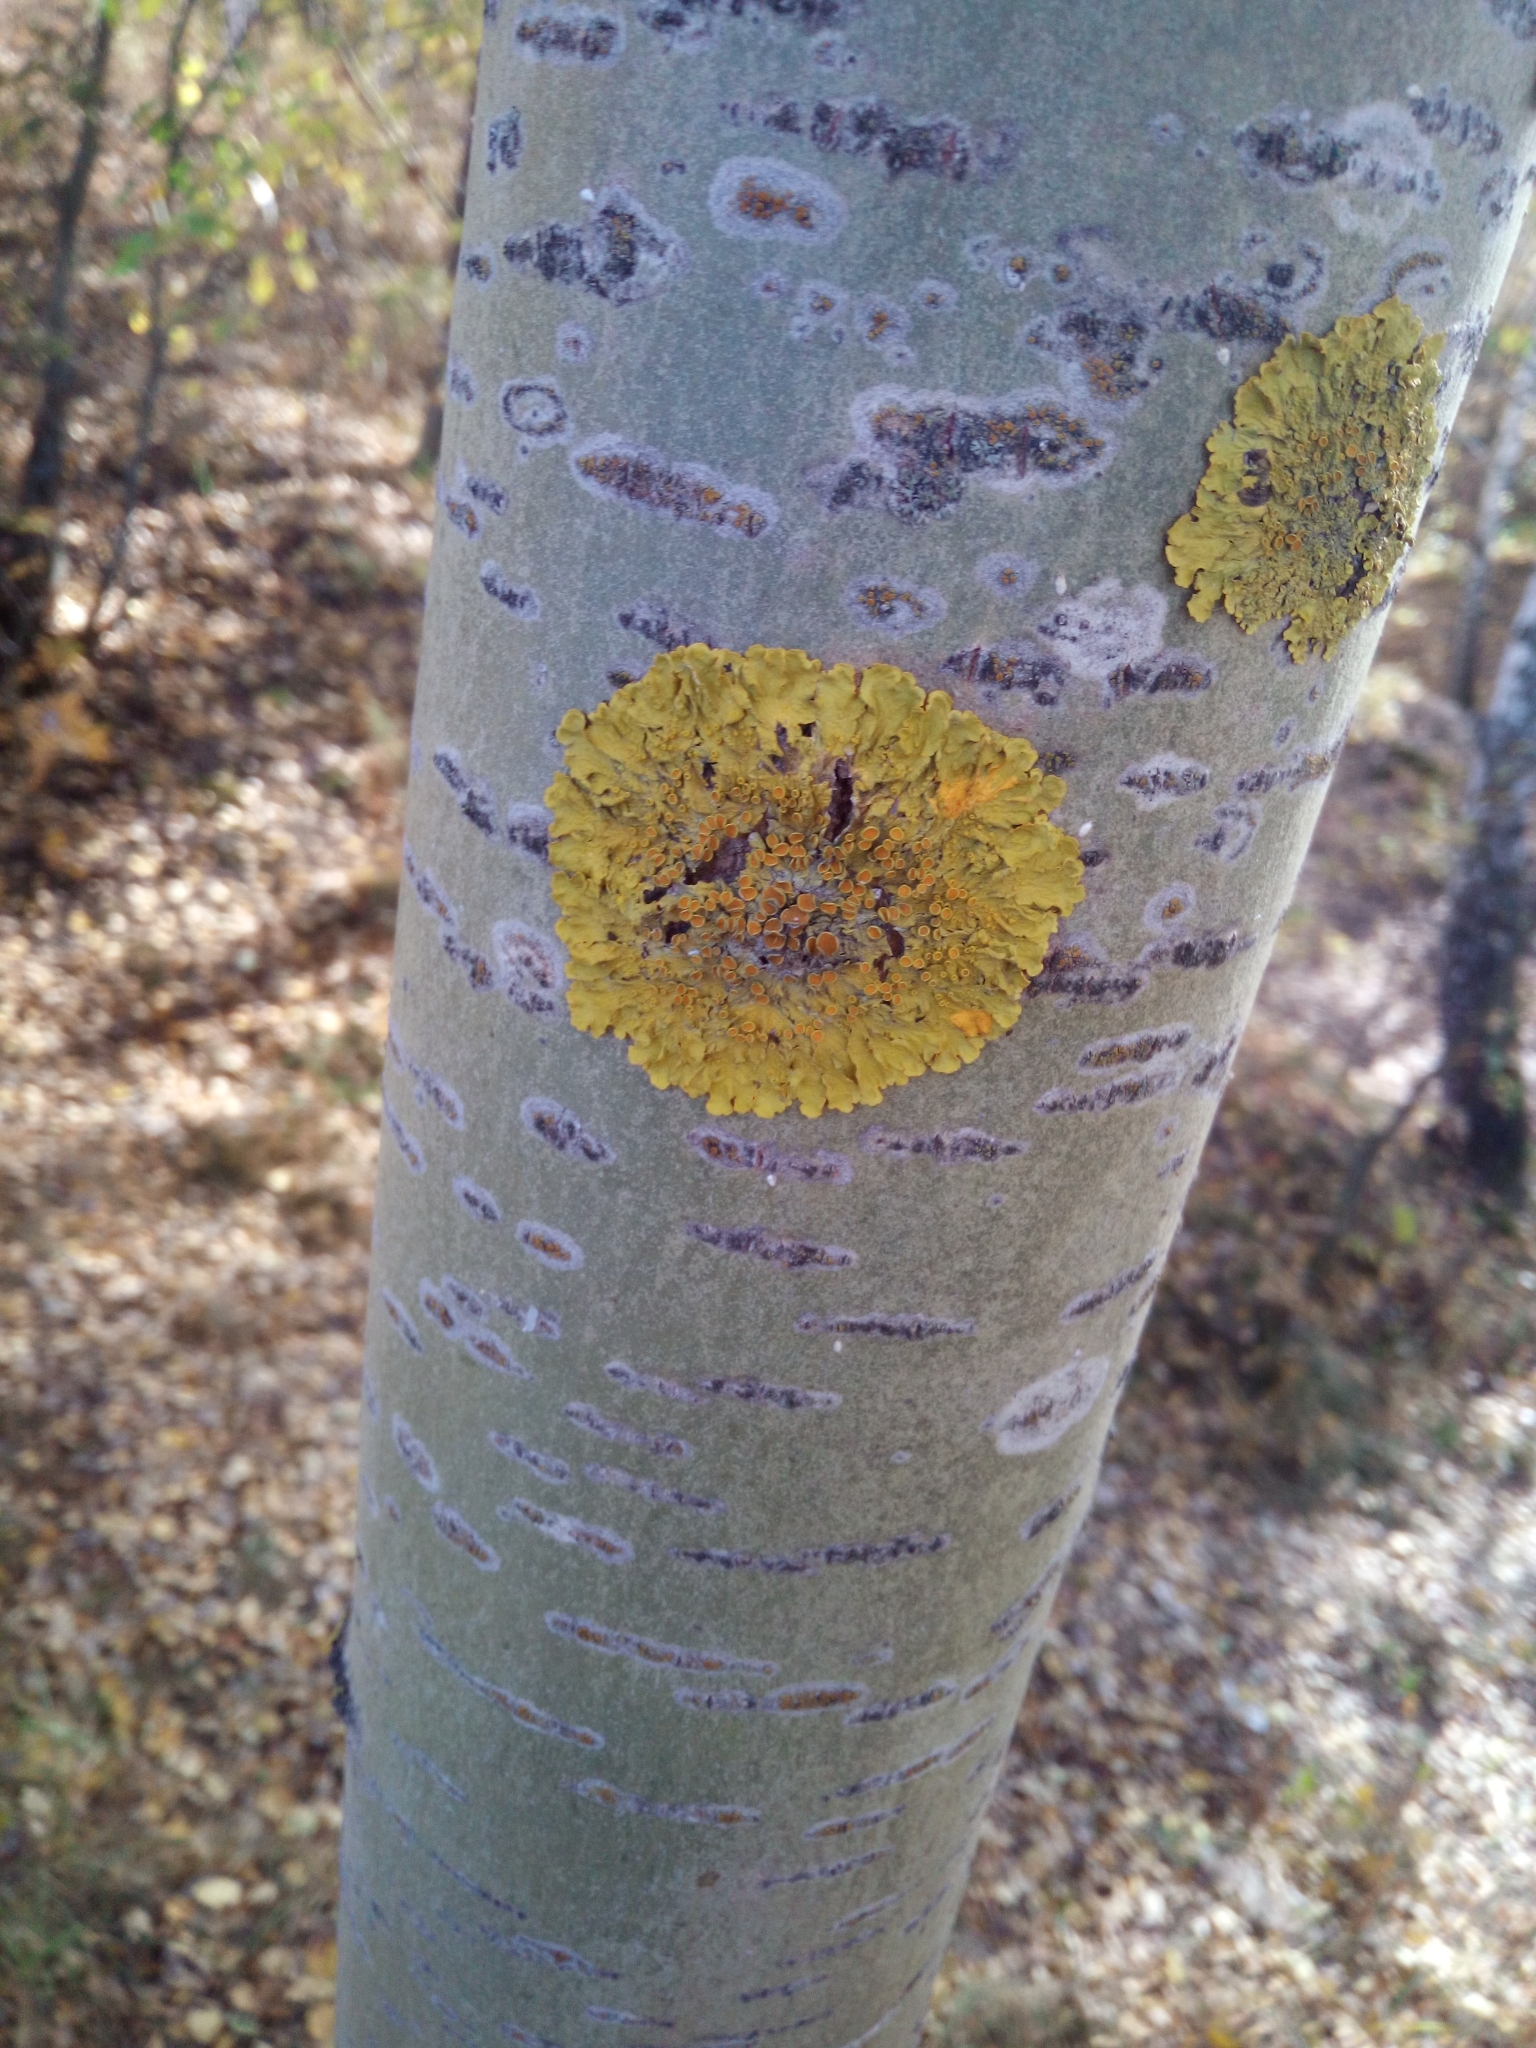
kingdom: Fungi
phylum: Ascomycota
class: Lecanoromycetes
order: Teloschistales
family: Teloschistaceae
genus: Xanthoria
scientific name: Xanthoria parietina
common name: Common orange lichen
